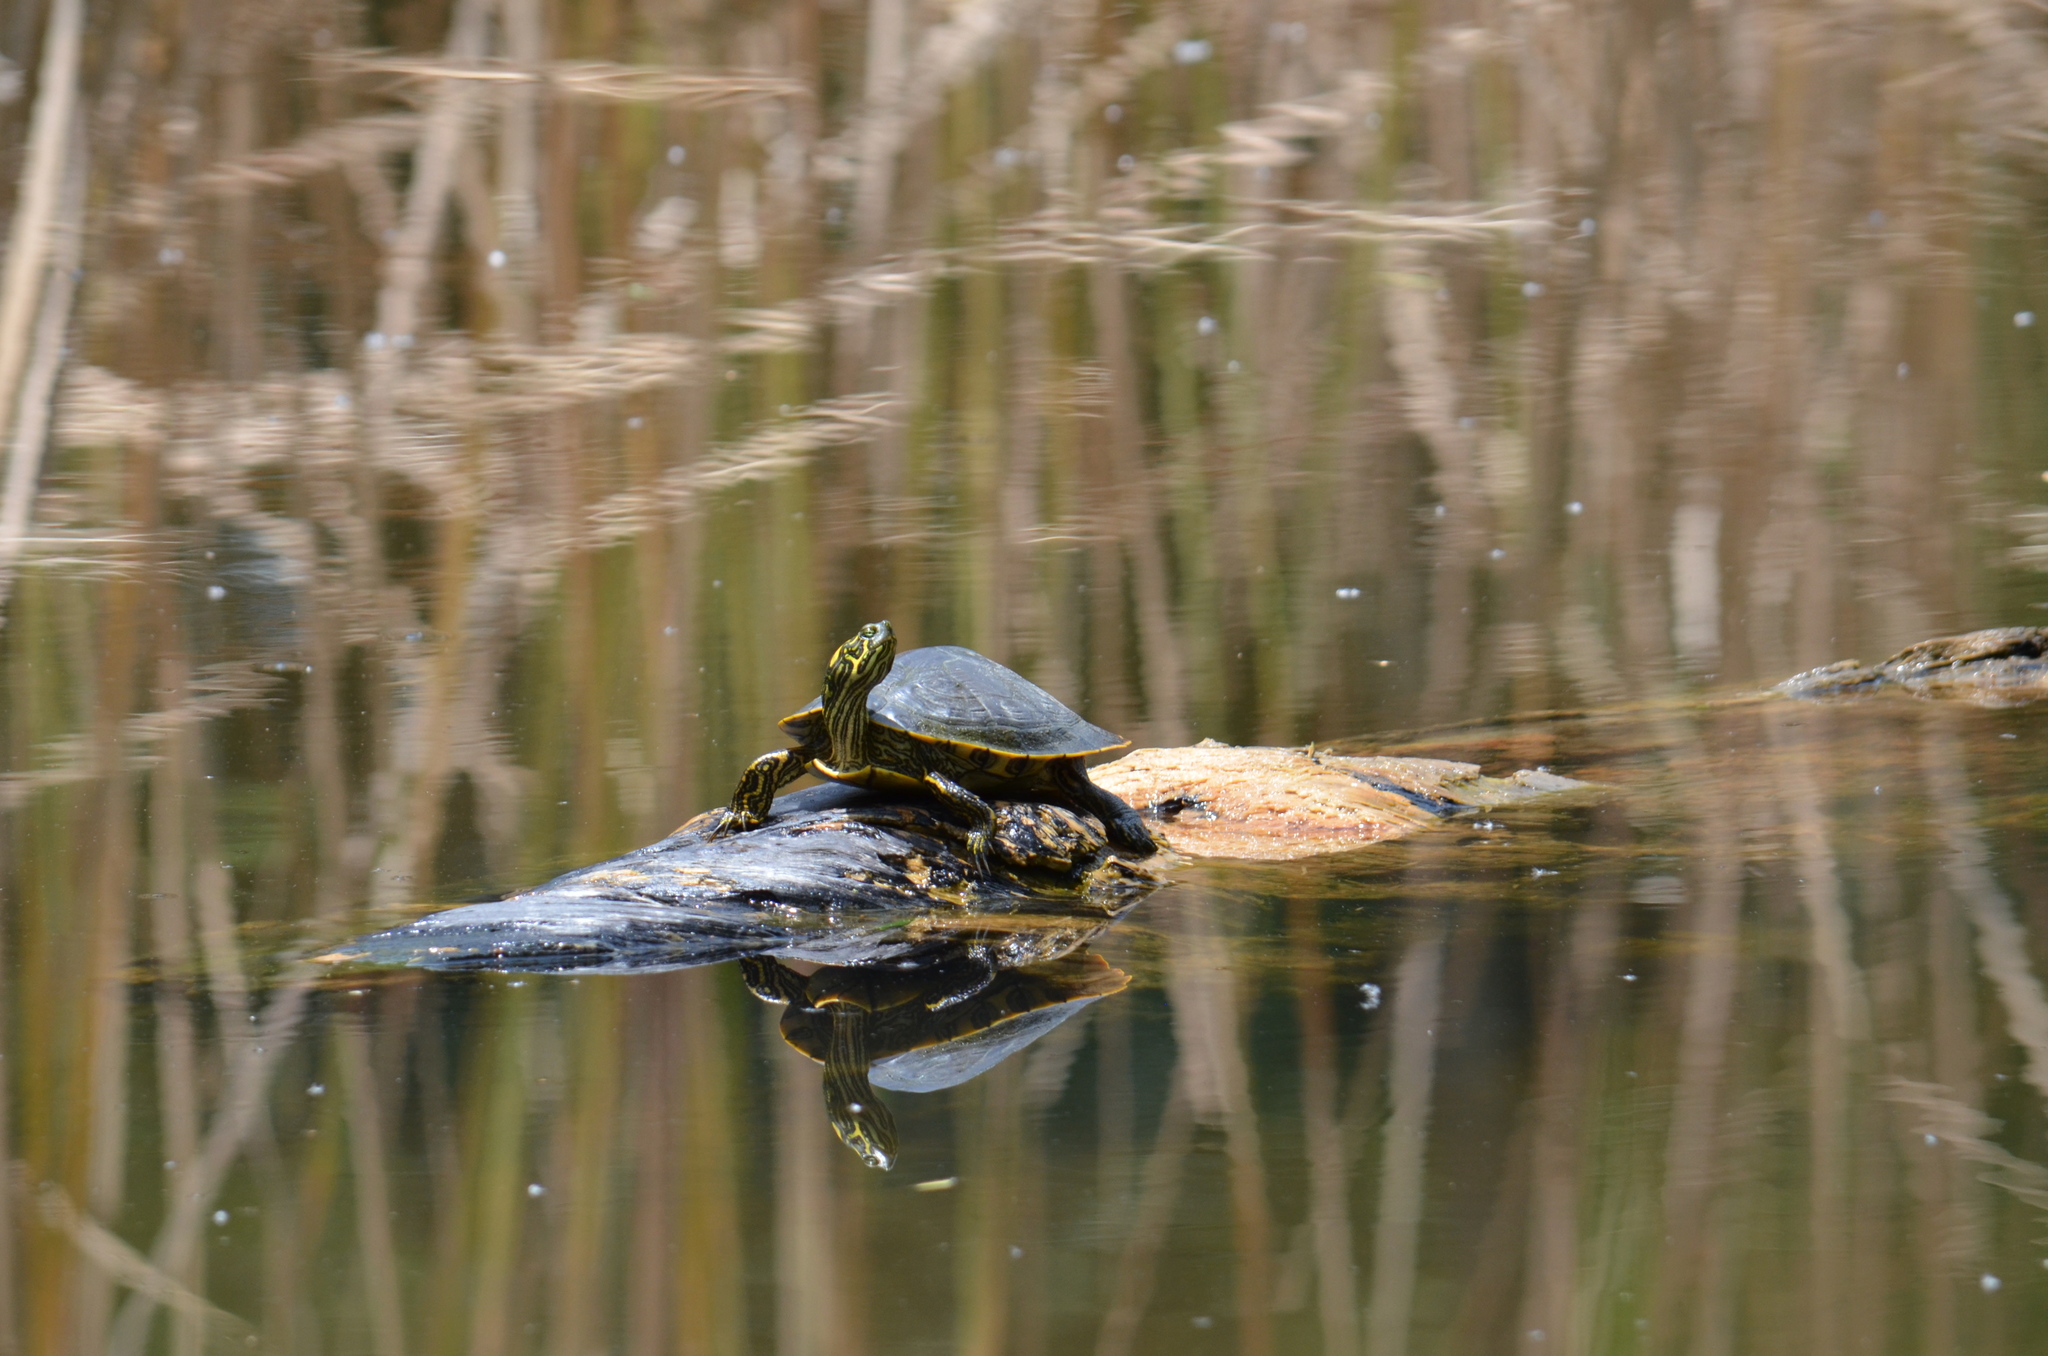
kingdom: Animalia
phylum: Chordata
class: Testudines
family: Emydidae
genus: Pseudemys
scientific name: Pseudemys texana
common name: Texas river cooter
